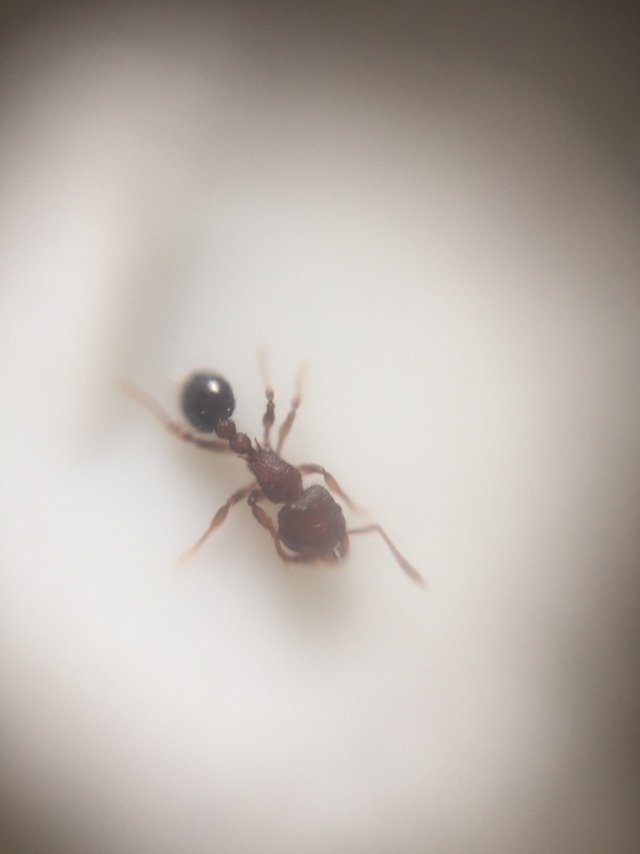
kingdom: Animalia
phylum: Arthropoda
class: Insecta
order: Hymenoptera
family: Formicidae
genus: Tetramorium
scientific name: Tetramorium lanuginosum
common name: Ant
